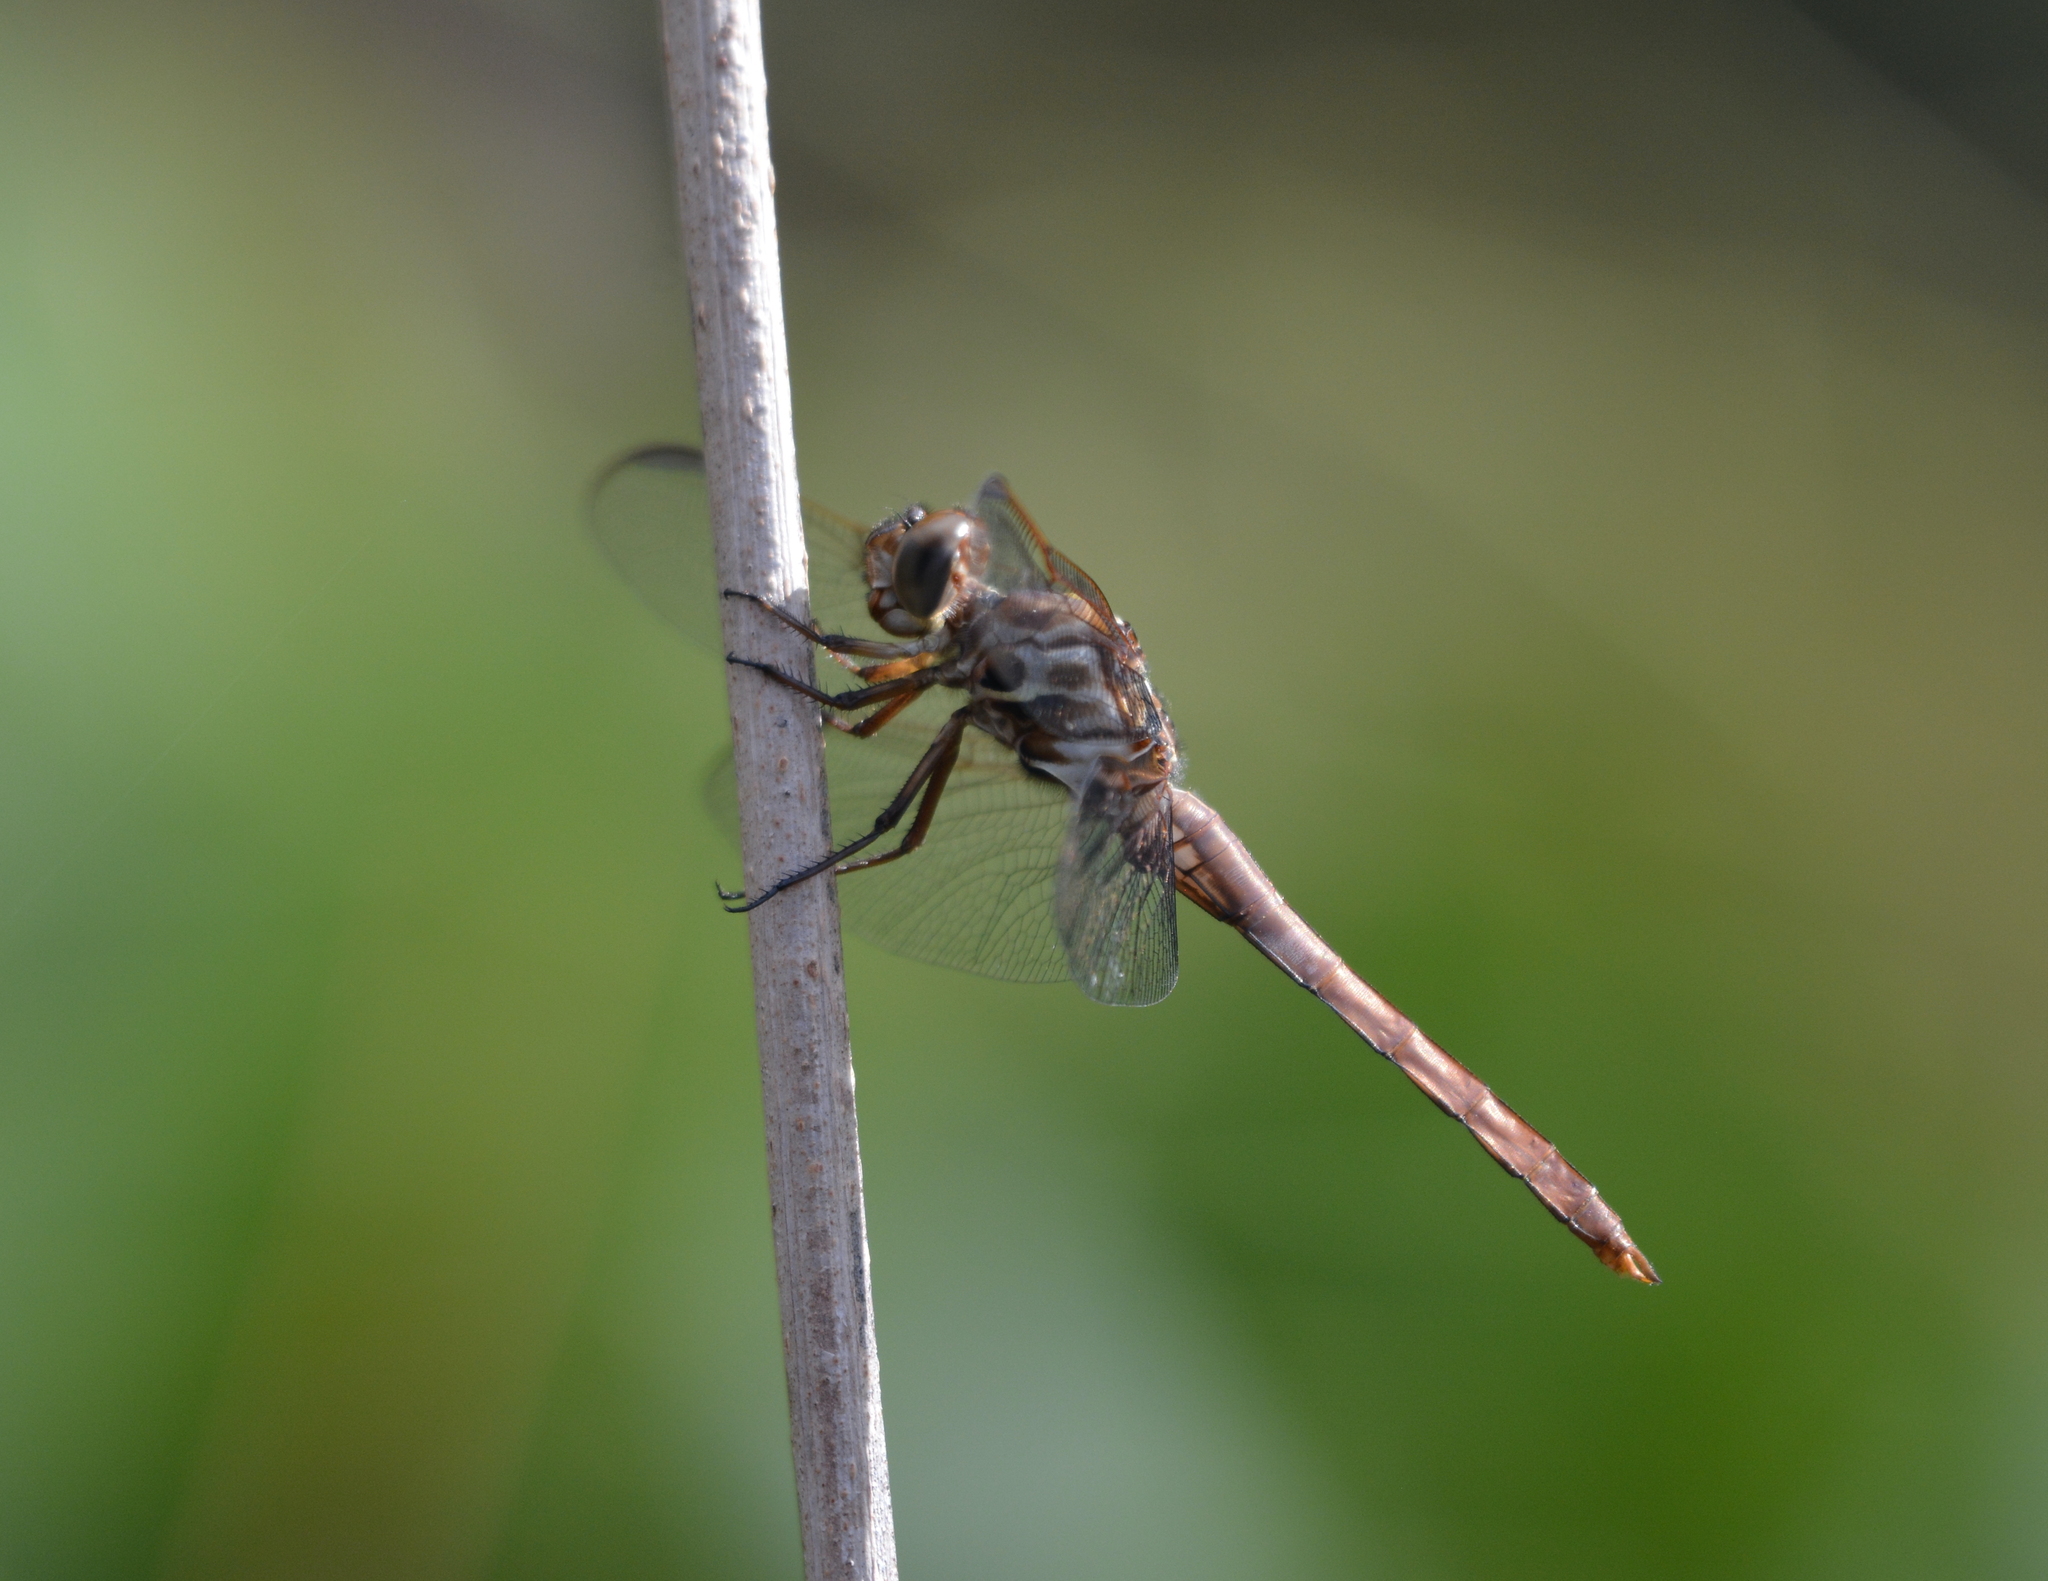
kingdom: Animalia
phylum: Arthropoda
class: Insecta
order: Odonata
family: Libellulidae
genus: Orthemis
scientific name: Orthemis ferruginea
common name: Roseate skimmer
